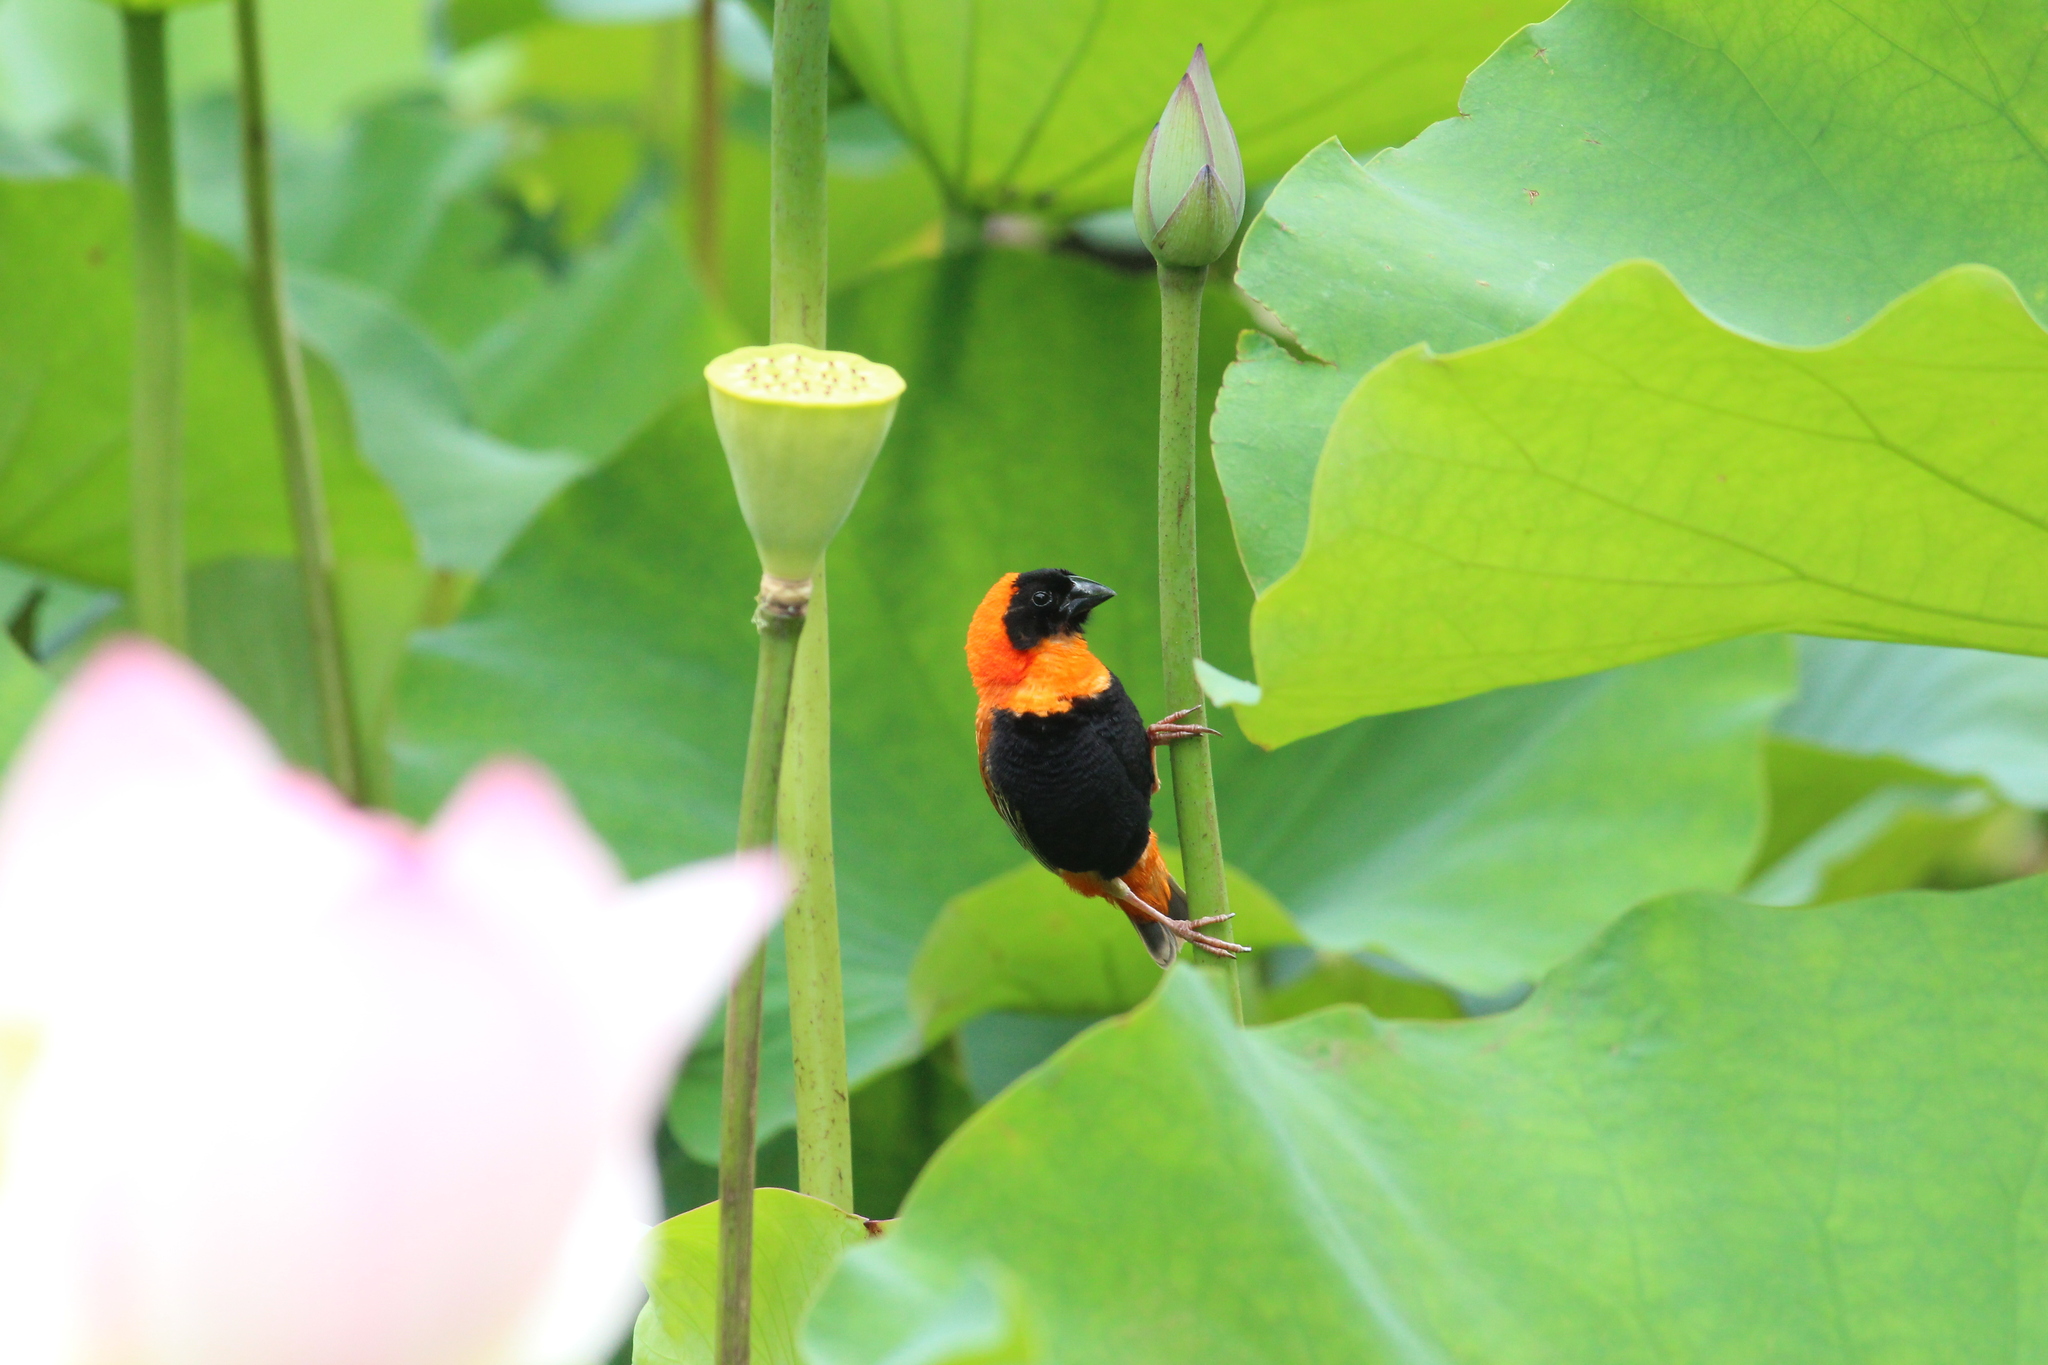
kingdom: Animalia
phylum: Chordata
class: Aves
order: Passeriformes
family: Ploceidae
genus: Euplectes
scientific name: Euplectes orix
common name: Southern red bishop
